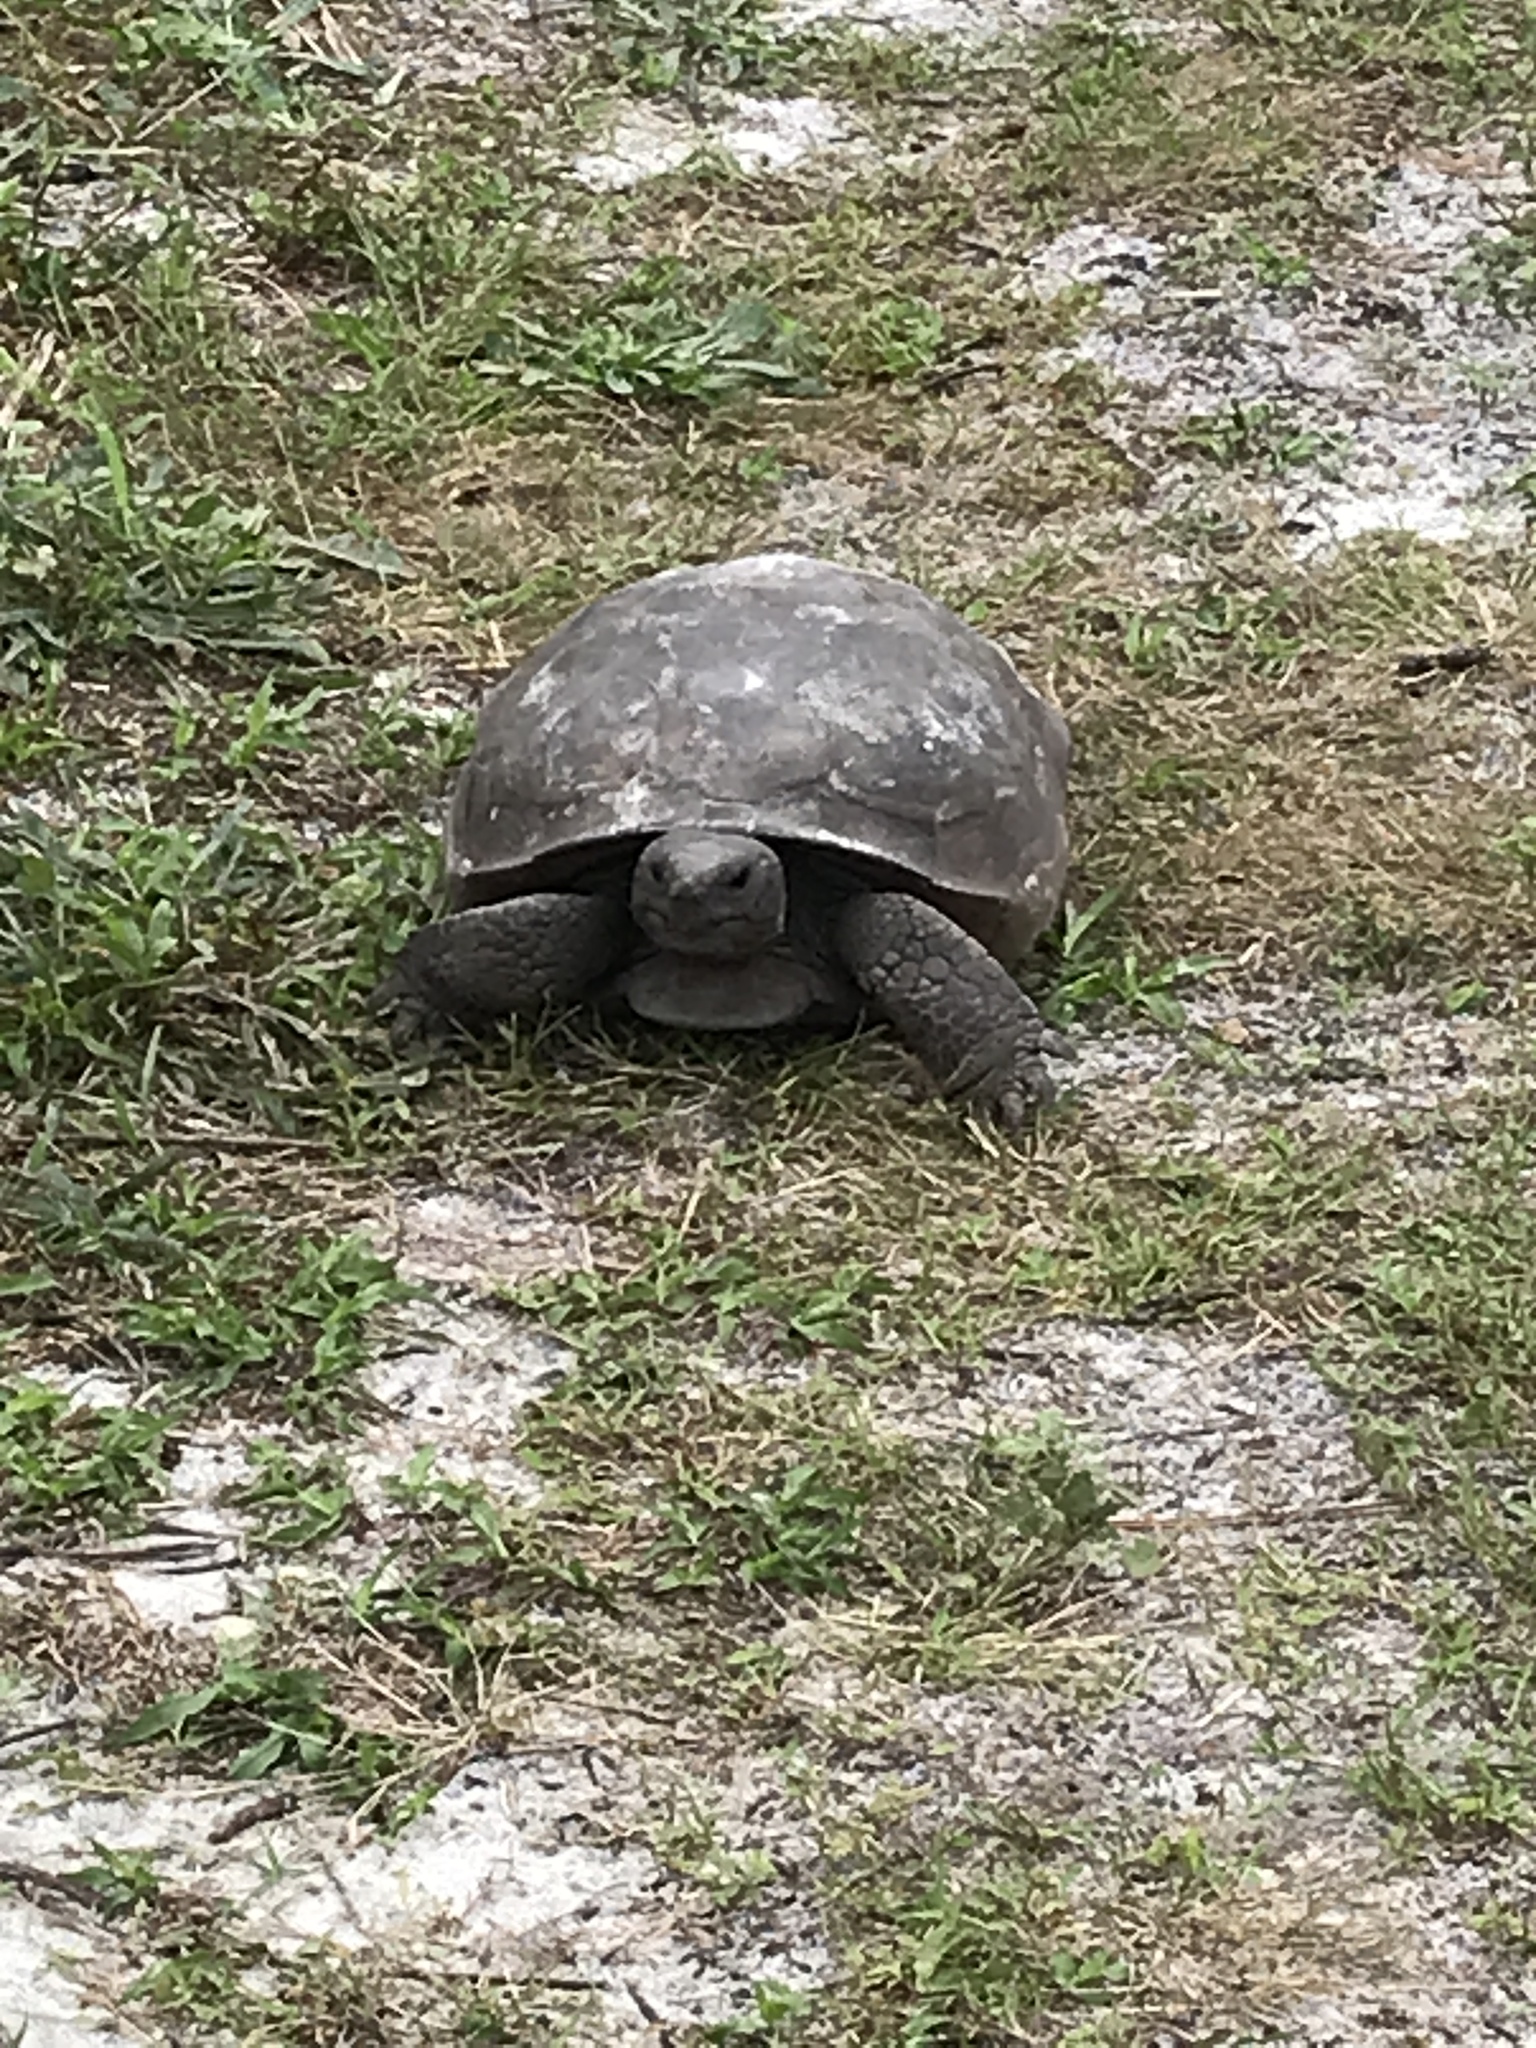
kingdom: Animalia
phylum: Chordata
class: Testudines
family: Testudinidae
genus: Gopherus
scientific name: Gopherus polyphemus
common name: Florida gopher tortoise
